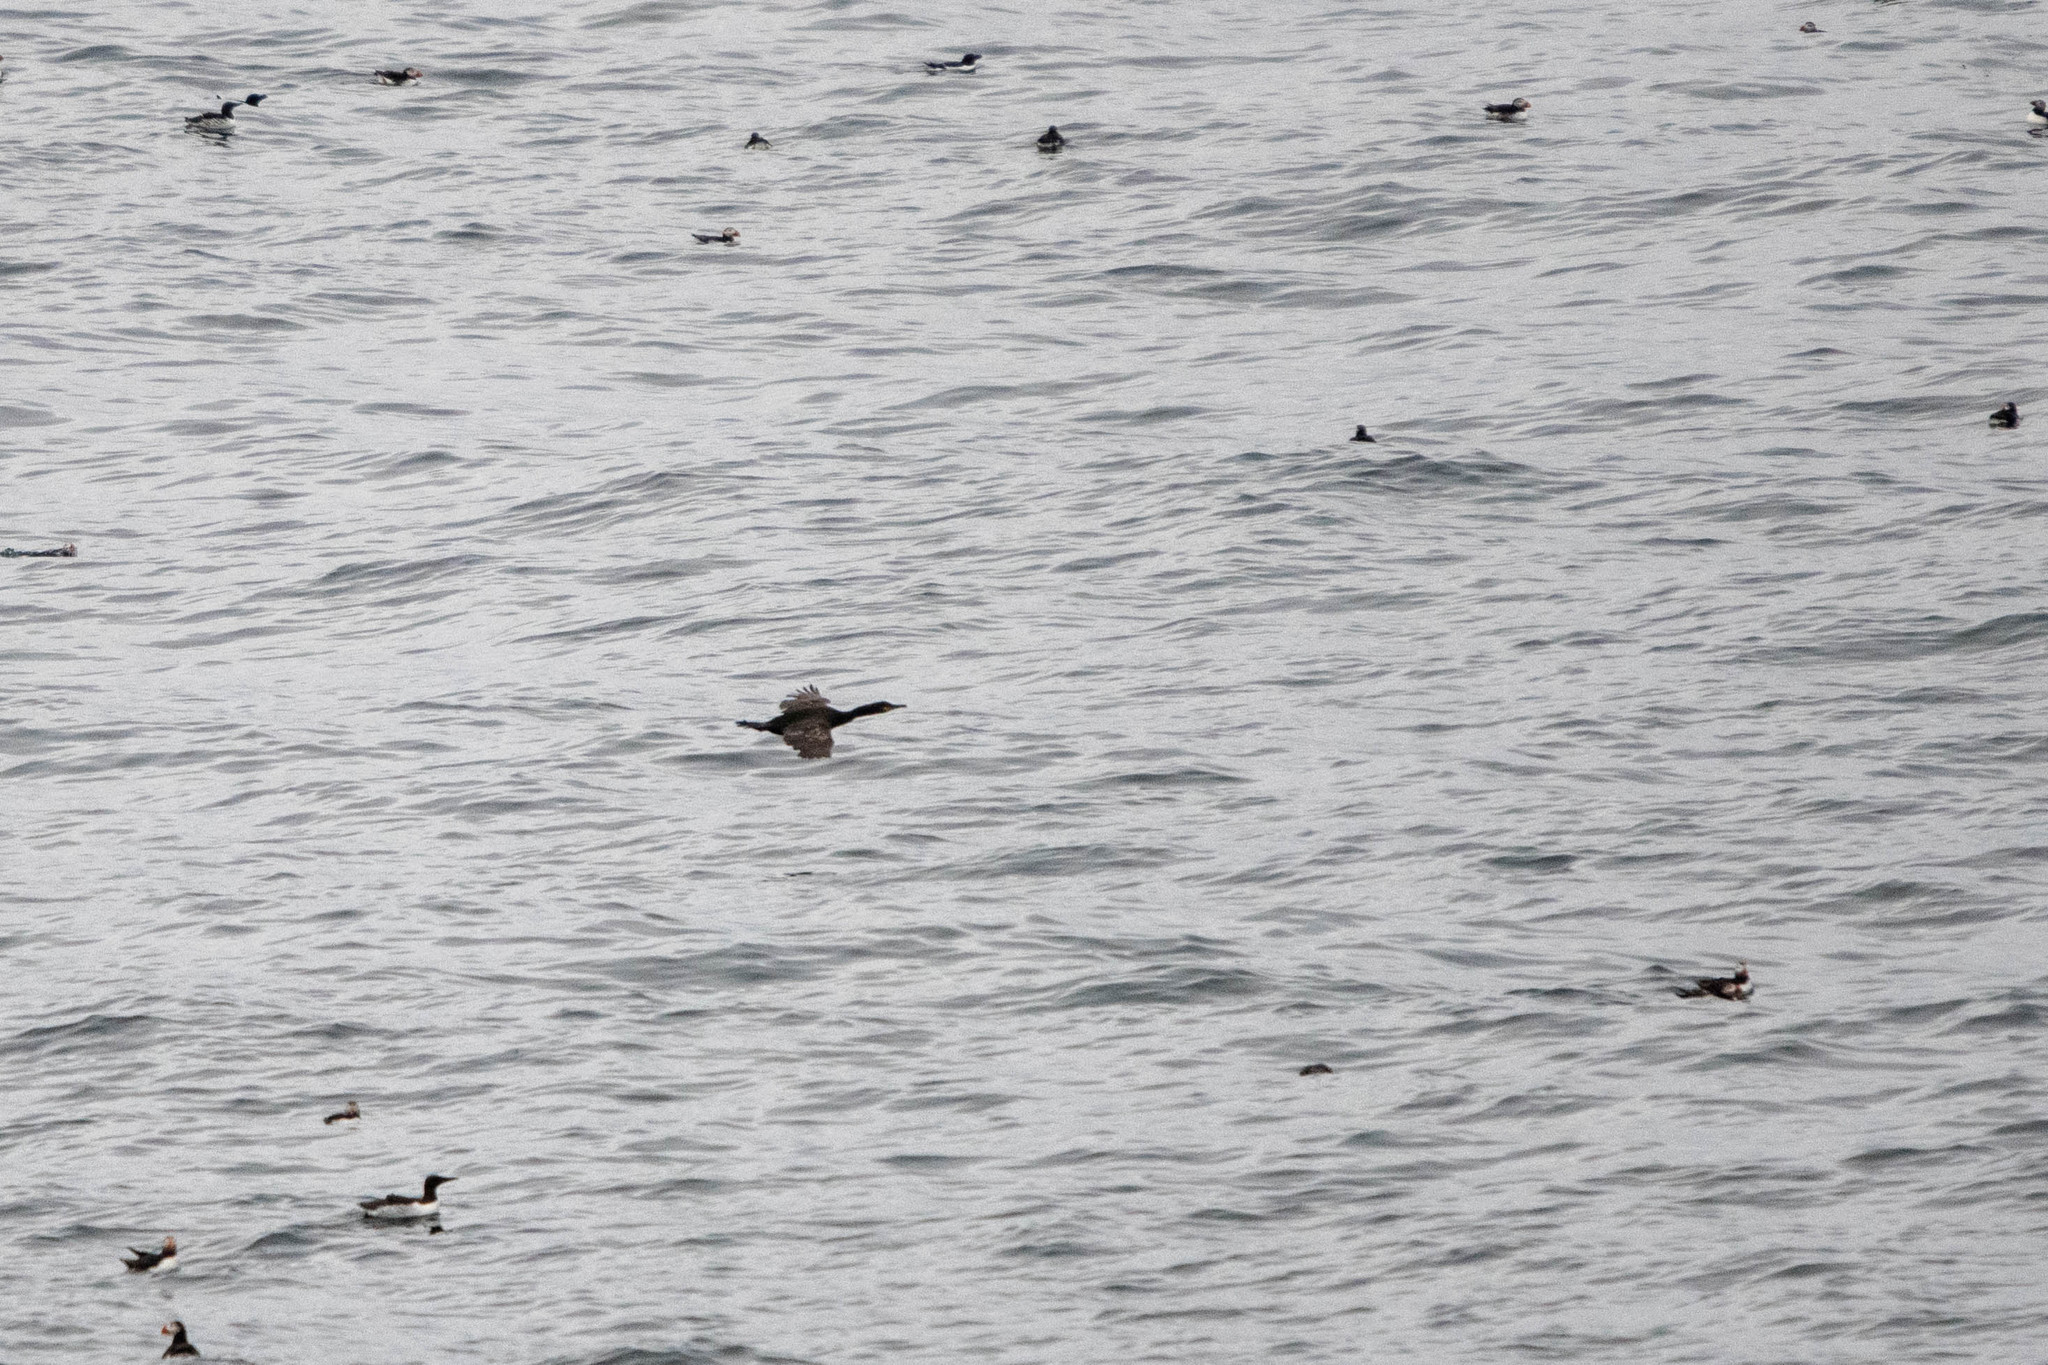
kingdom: Animalia
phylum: Chordata
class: Aves
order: Suliformes
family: Phalacrocoracidae
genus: Phalacrocorax
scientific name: Phalacrocorax aristotelis
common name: European shag
